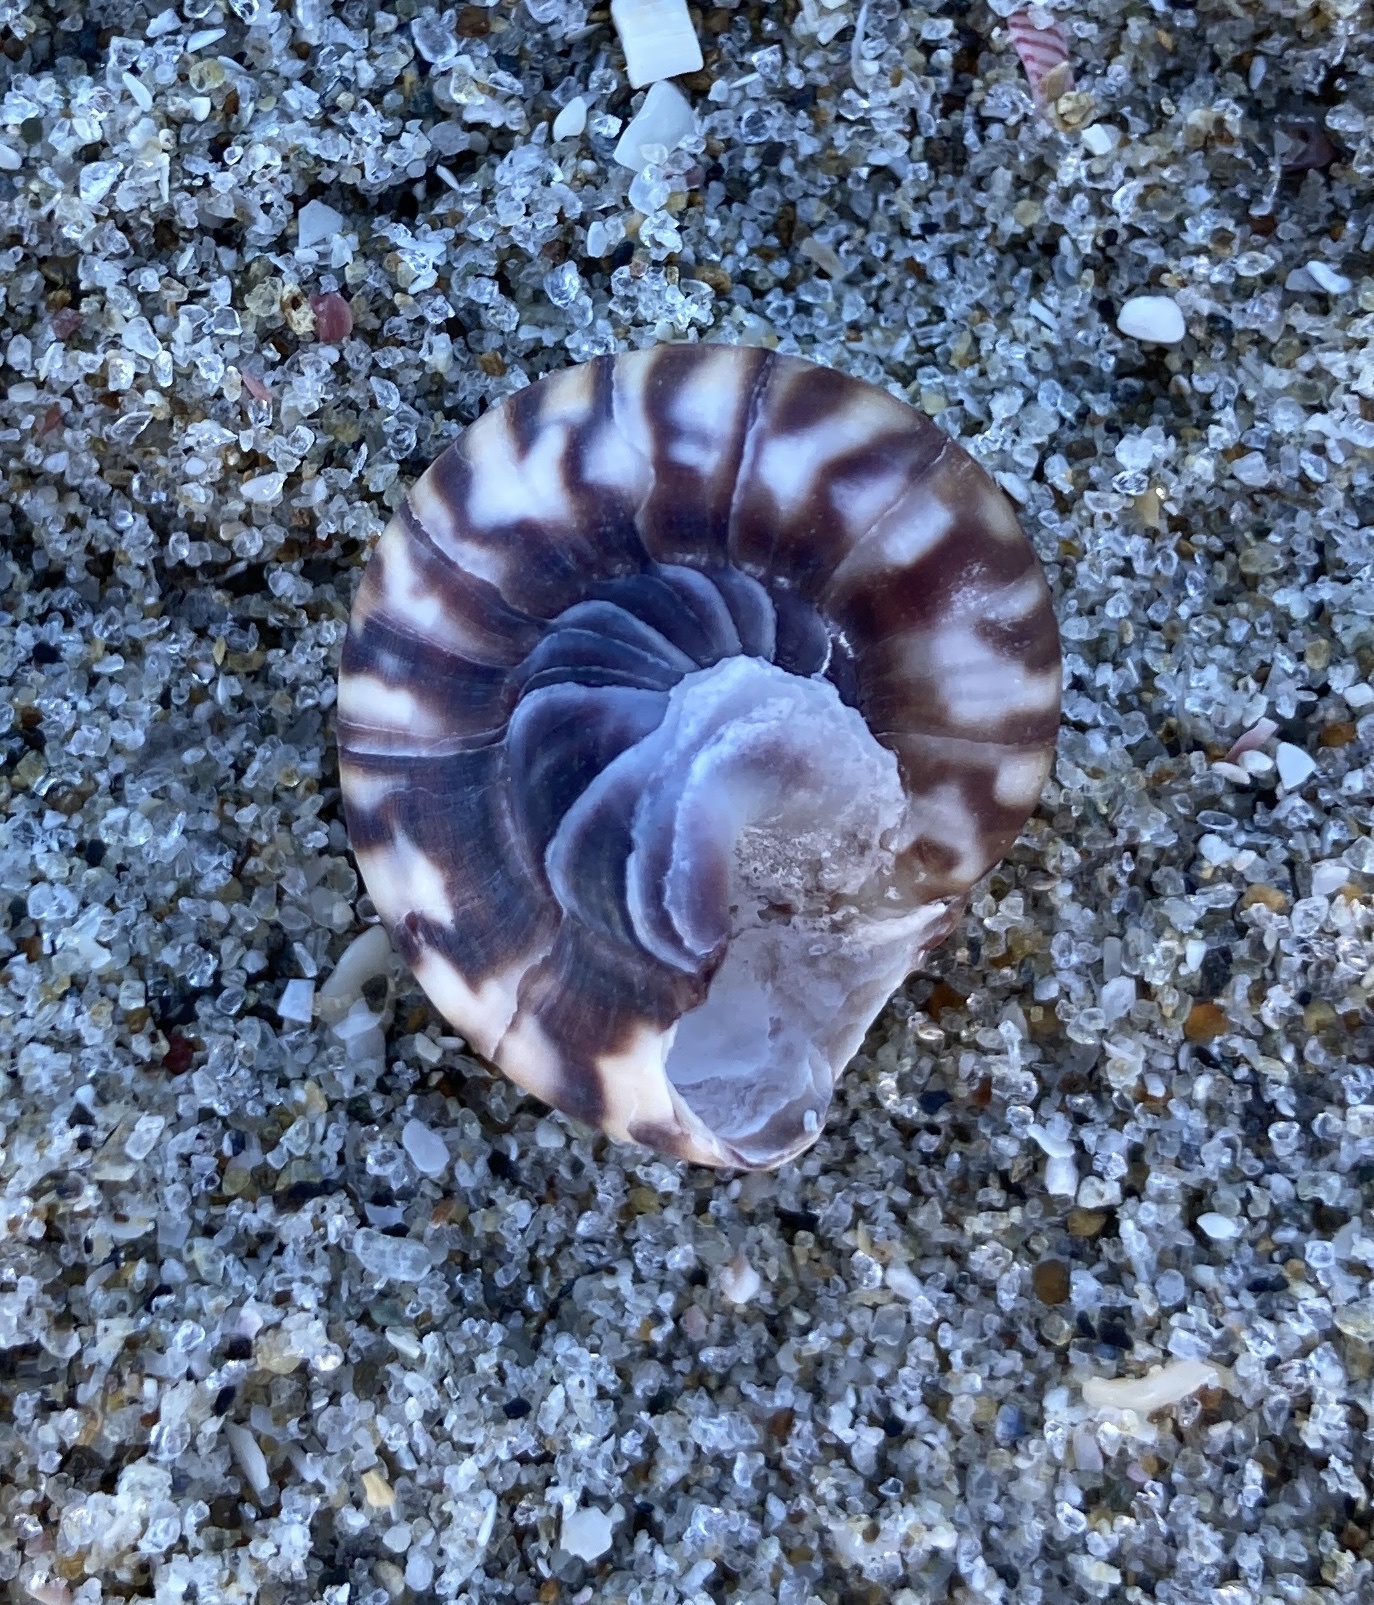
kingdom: Animalia
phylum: Mollusca
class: Gastropoda
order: Trochida
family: Trochidae
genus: Zethalia
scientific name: Zethalia zelandica
